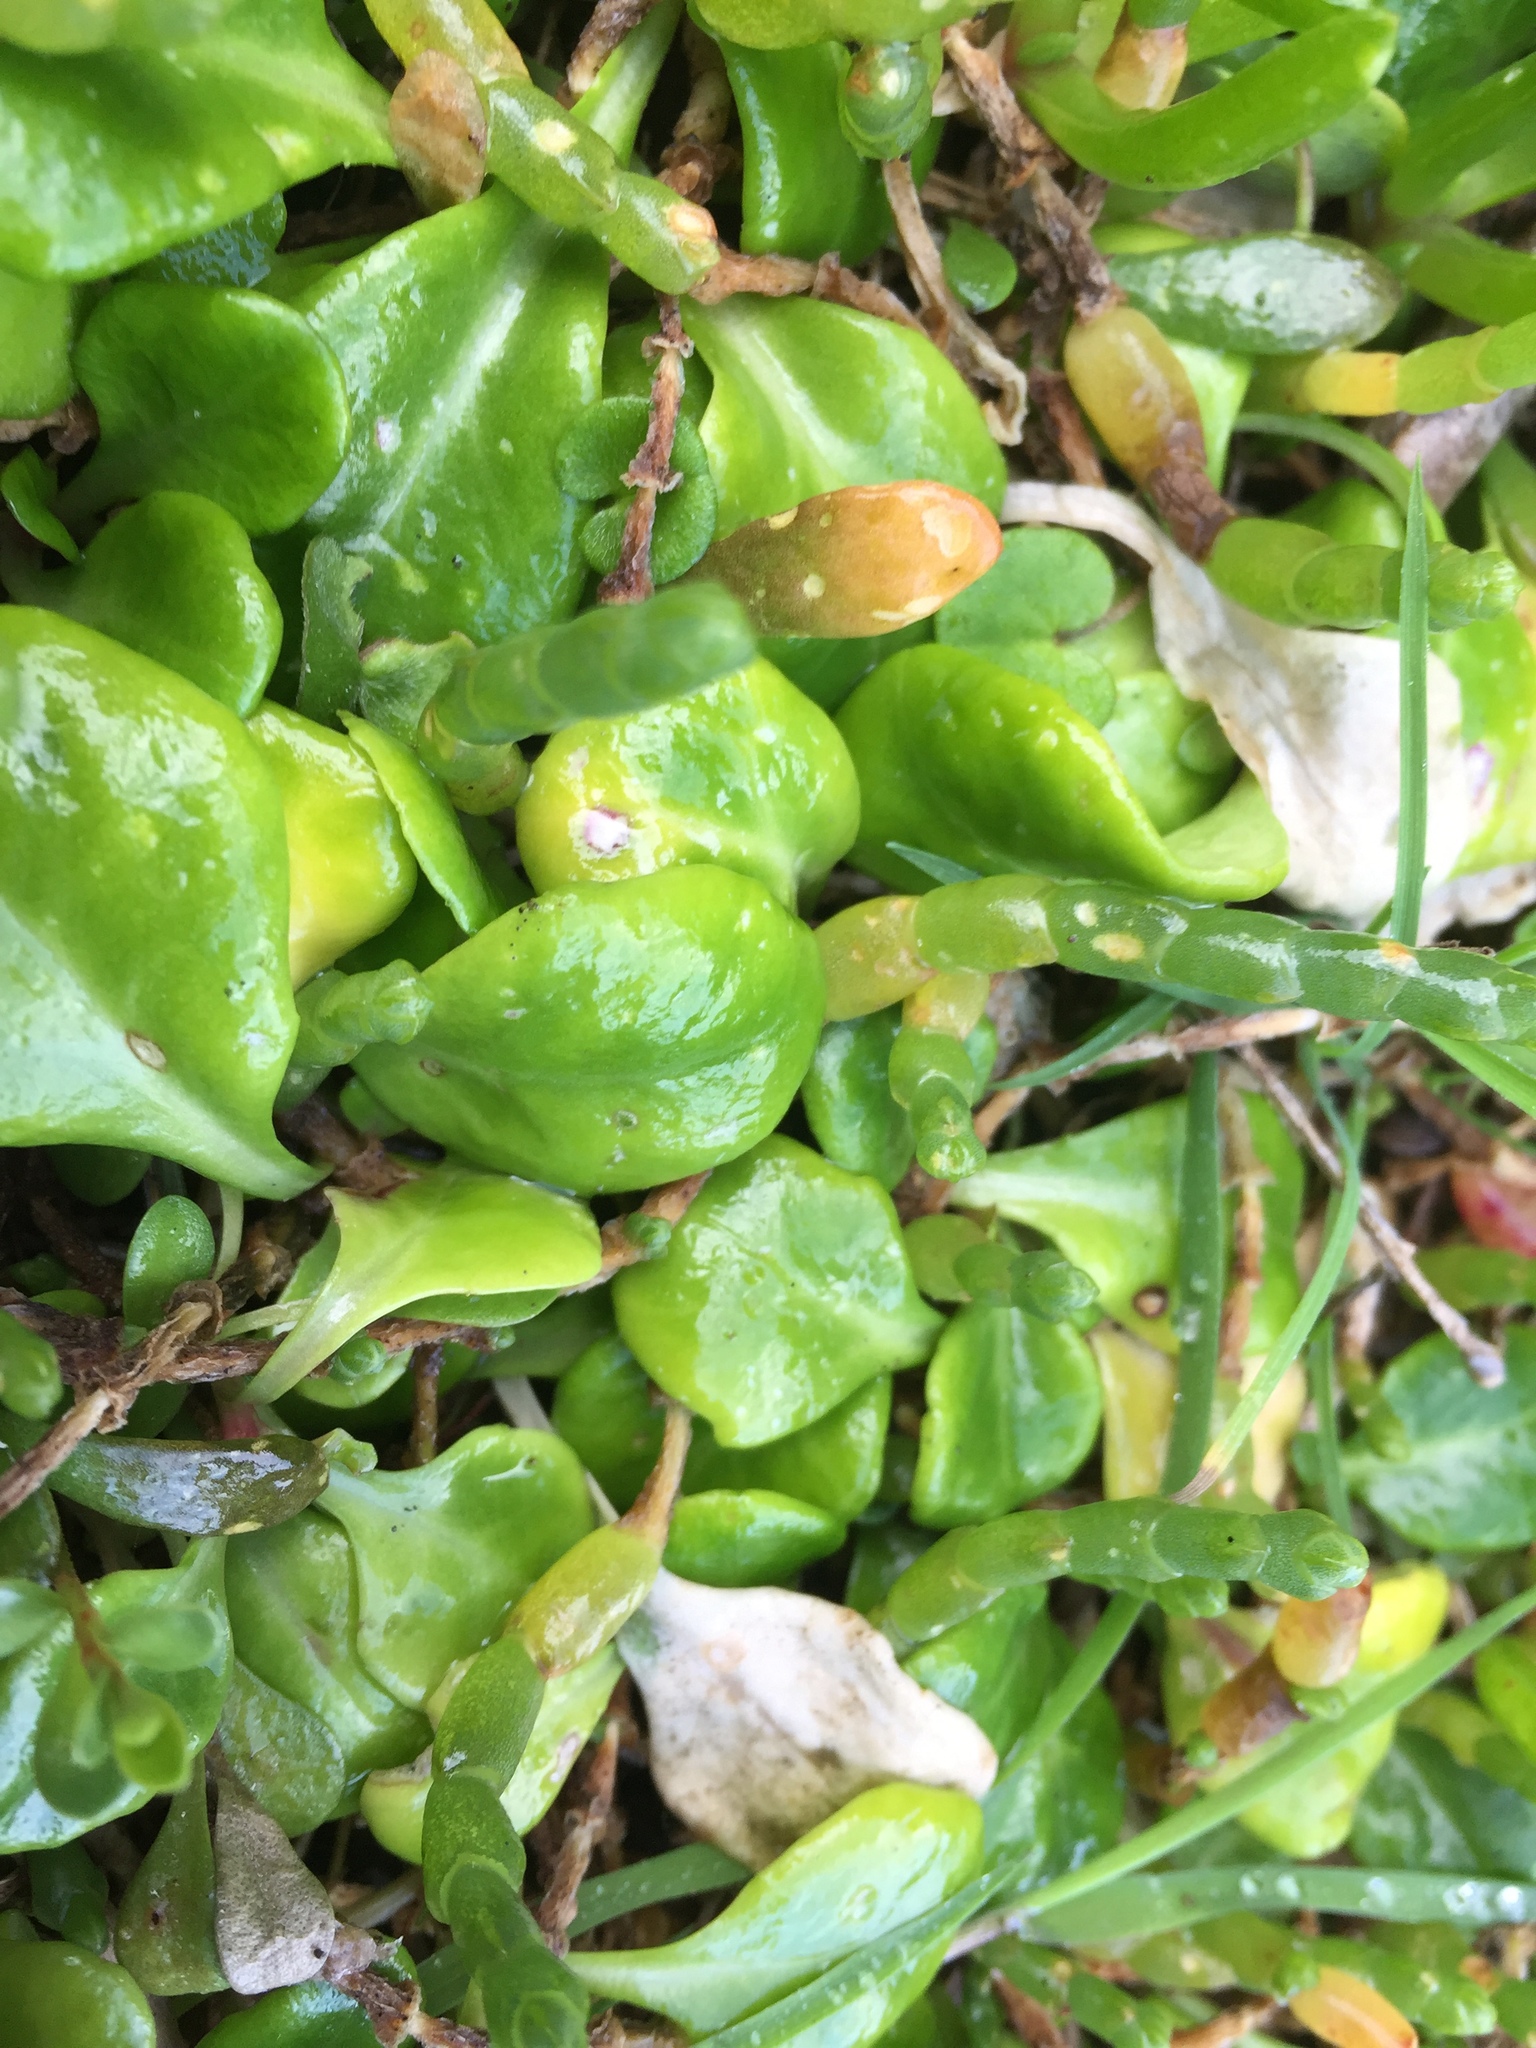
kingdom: Plantae
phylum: Tracheophyta
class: Magnoliopsida
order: Asterales
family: Campanulaceae
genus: Lobelia
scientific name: Lobelia anceps
